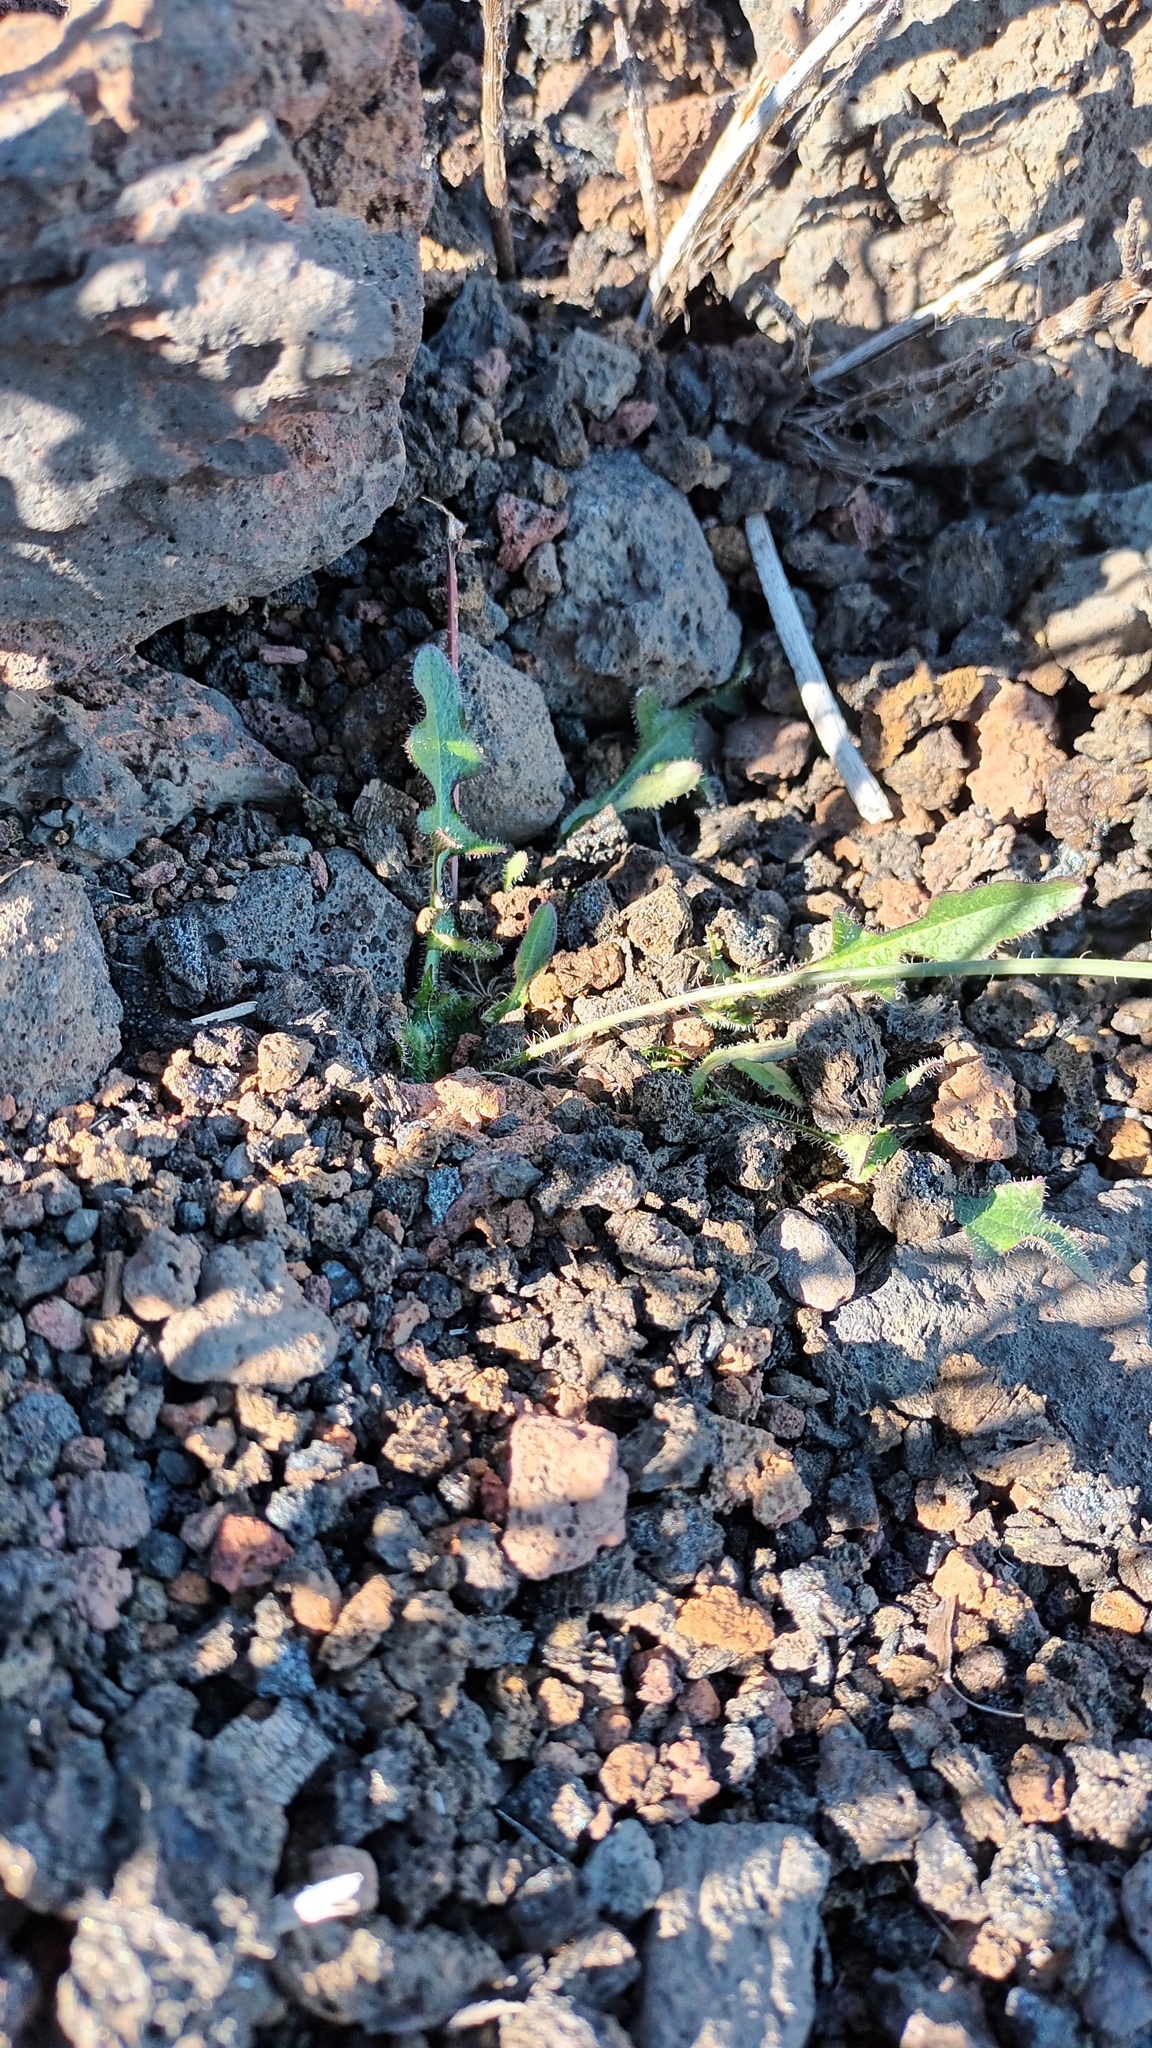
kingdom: Plantae
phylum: Tracheophyta
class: Magnoliopsida
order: Asterales
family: Asteraceae
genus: Hypochaeris
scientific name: Hypochaeris radicata
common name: Flatweed
